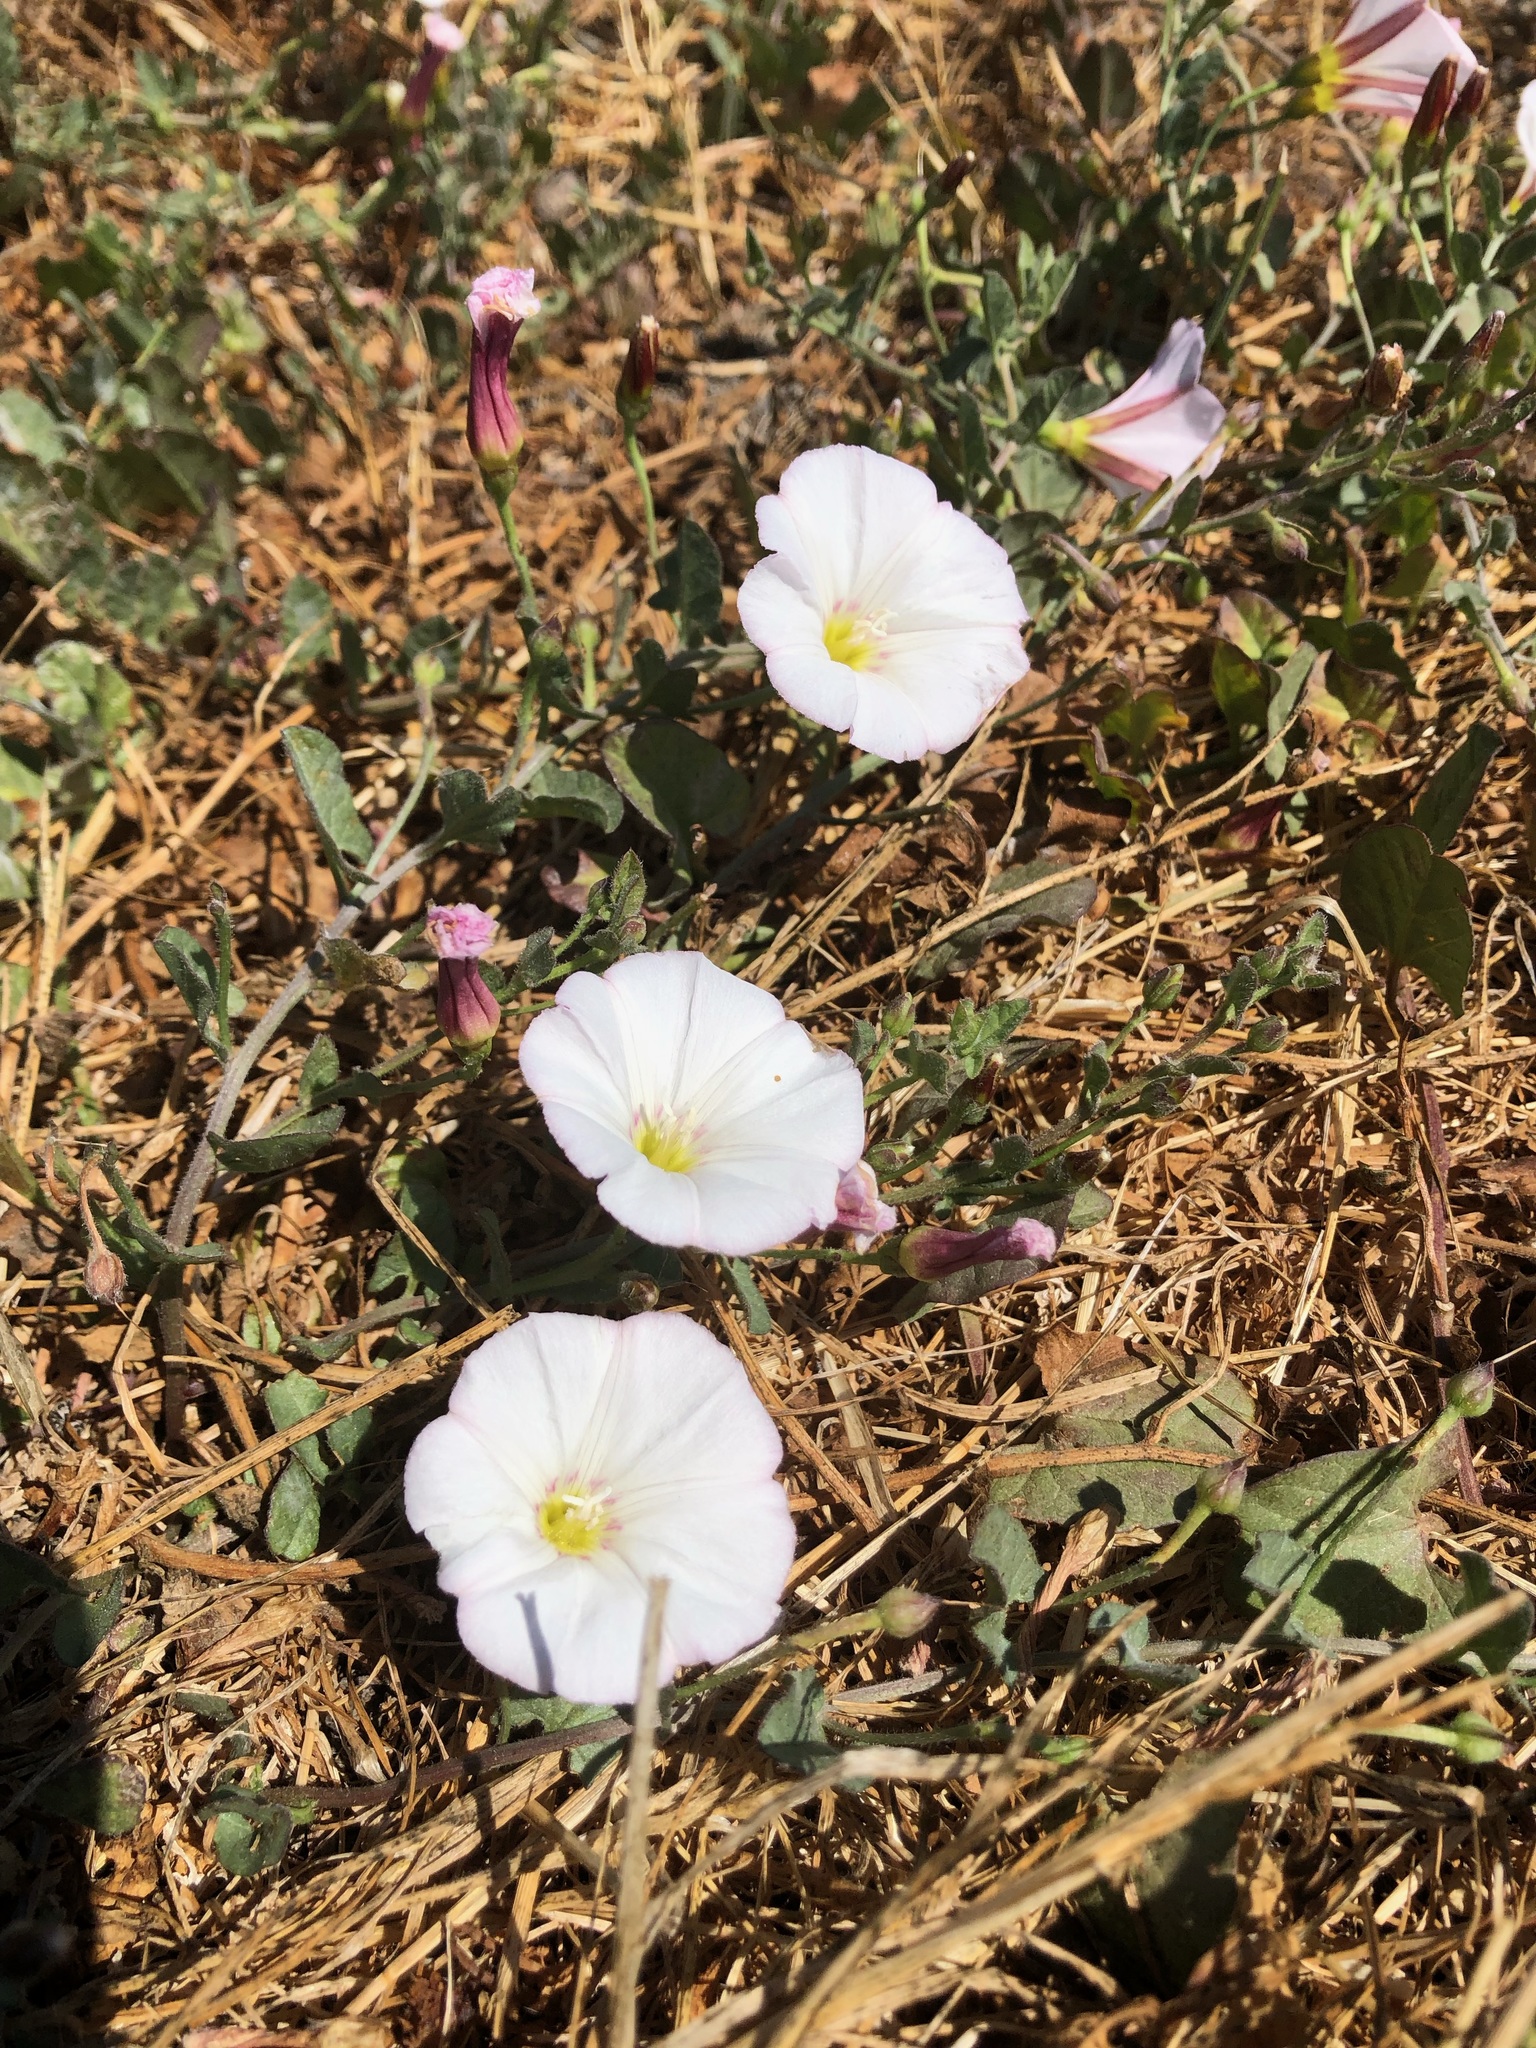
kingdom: Plantae
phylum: Tracheophyta
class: Magnoliopsida
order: Solanales
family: Convolvulaceae
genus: Convolvulus
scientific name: Convolvulus arvensis
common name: Field bindweed
